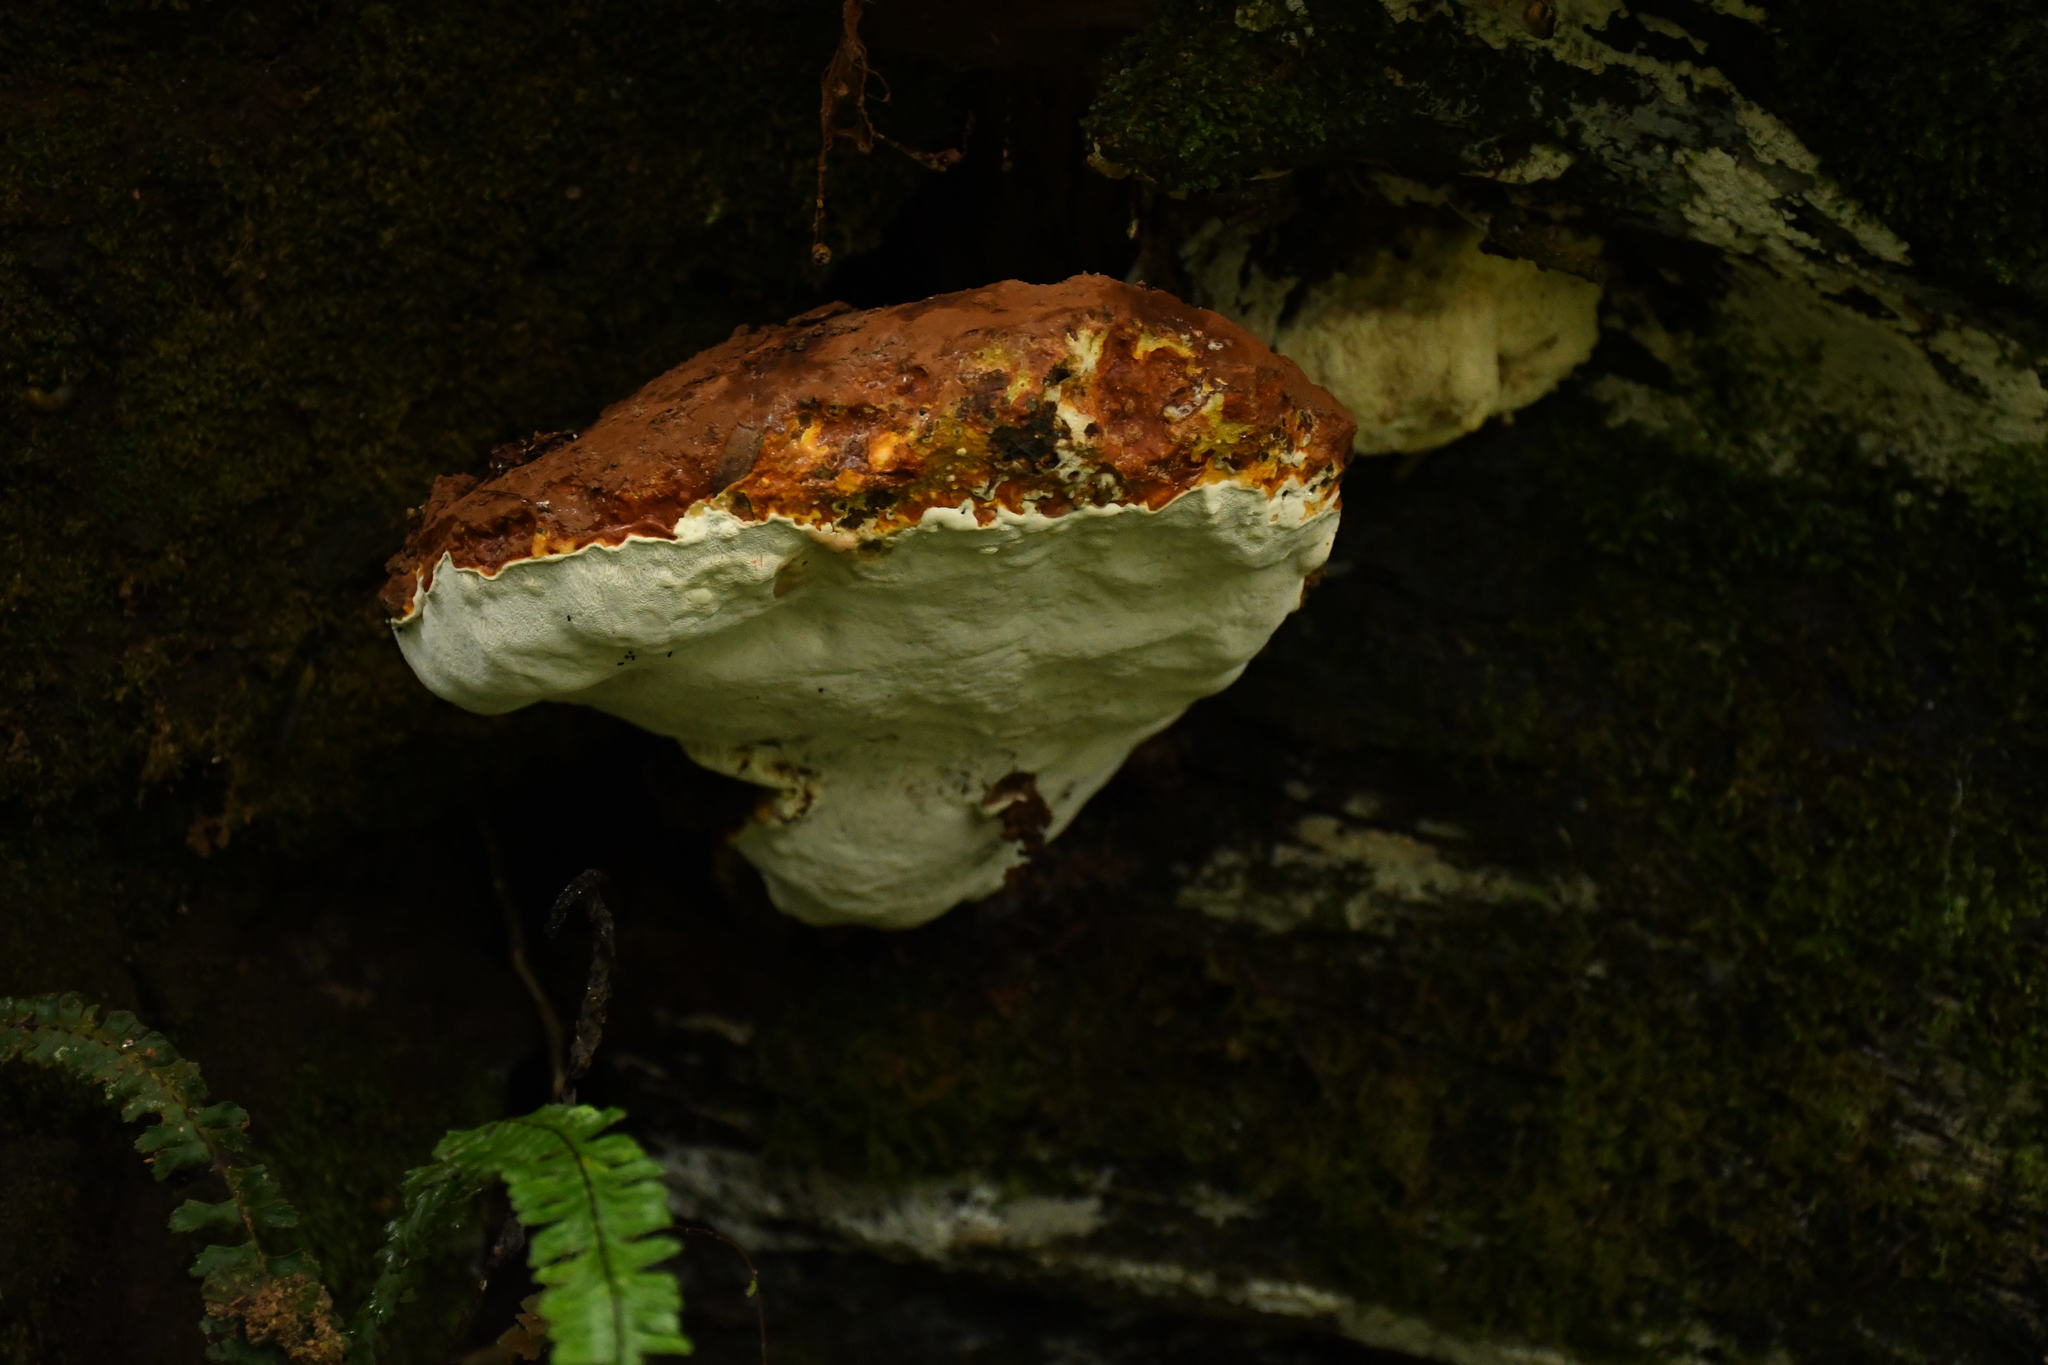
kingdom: Fungi
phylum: Basidiomycota
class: Agaricomycetes
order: Polyporales
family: Fomitopsidaceae
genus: Fomitopsis
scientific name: Fomitopsis schrenkii
